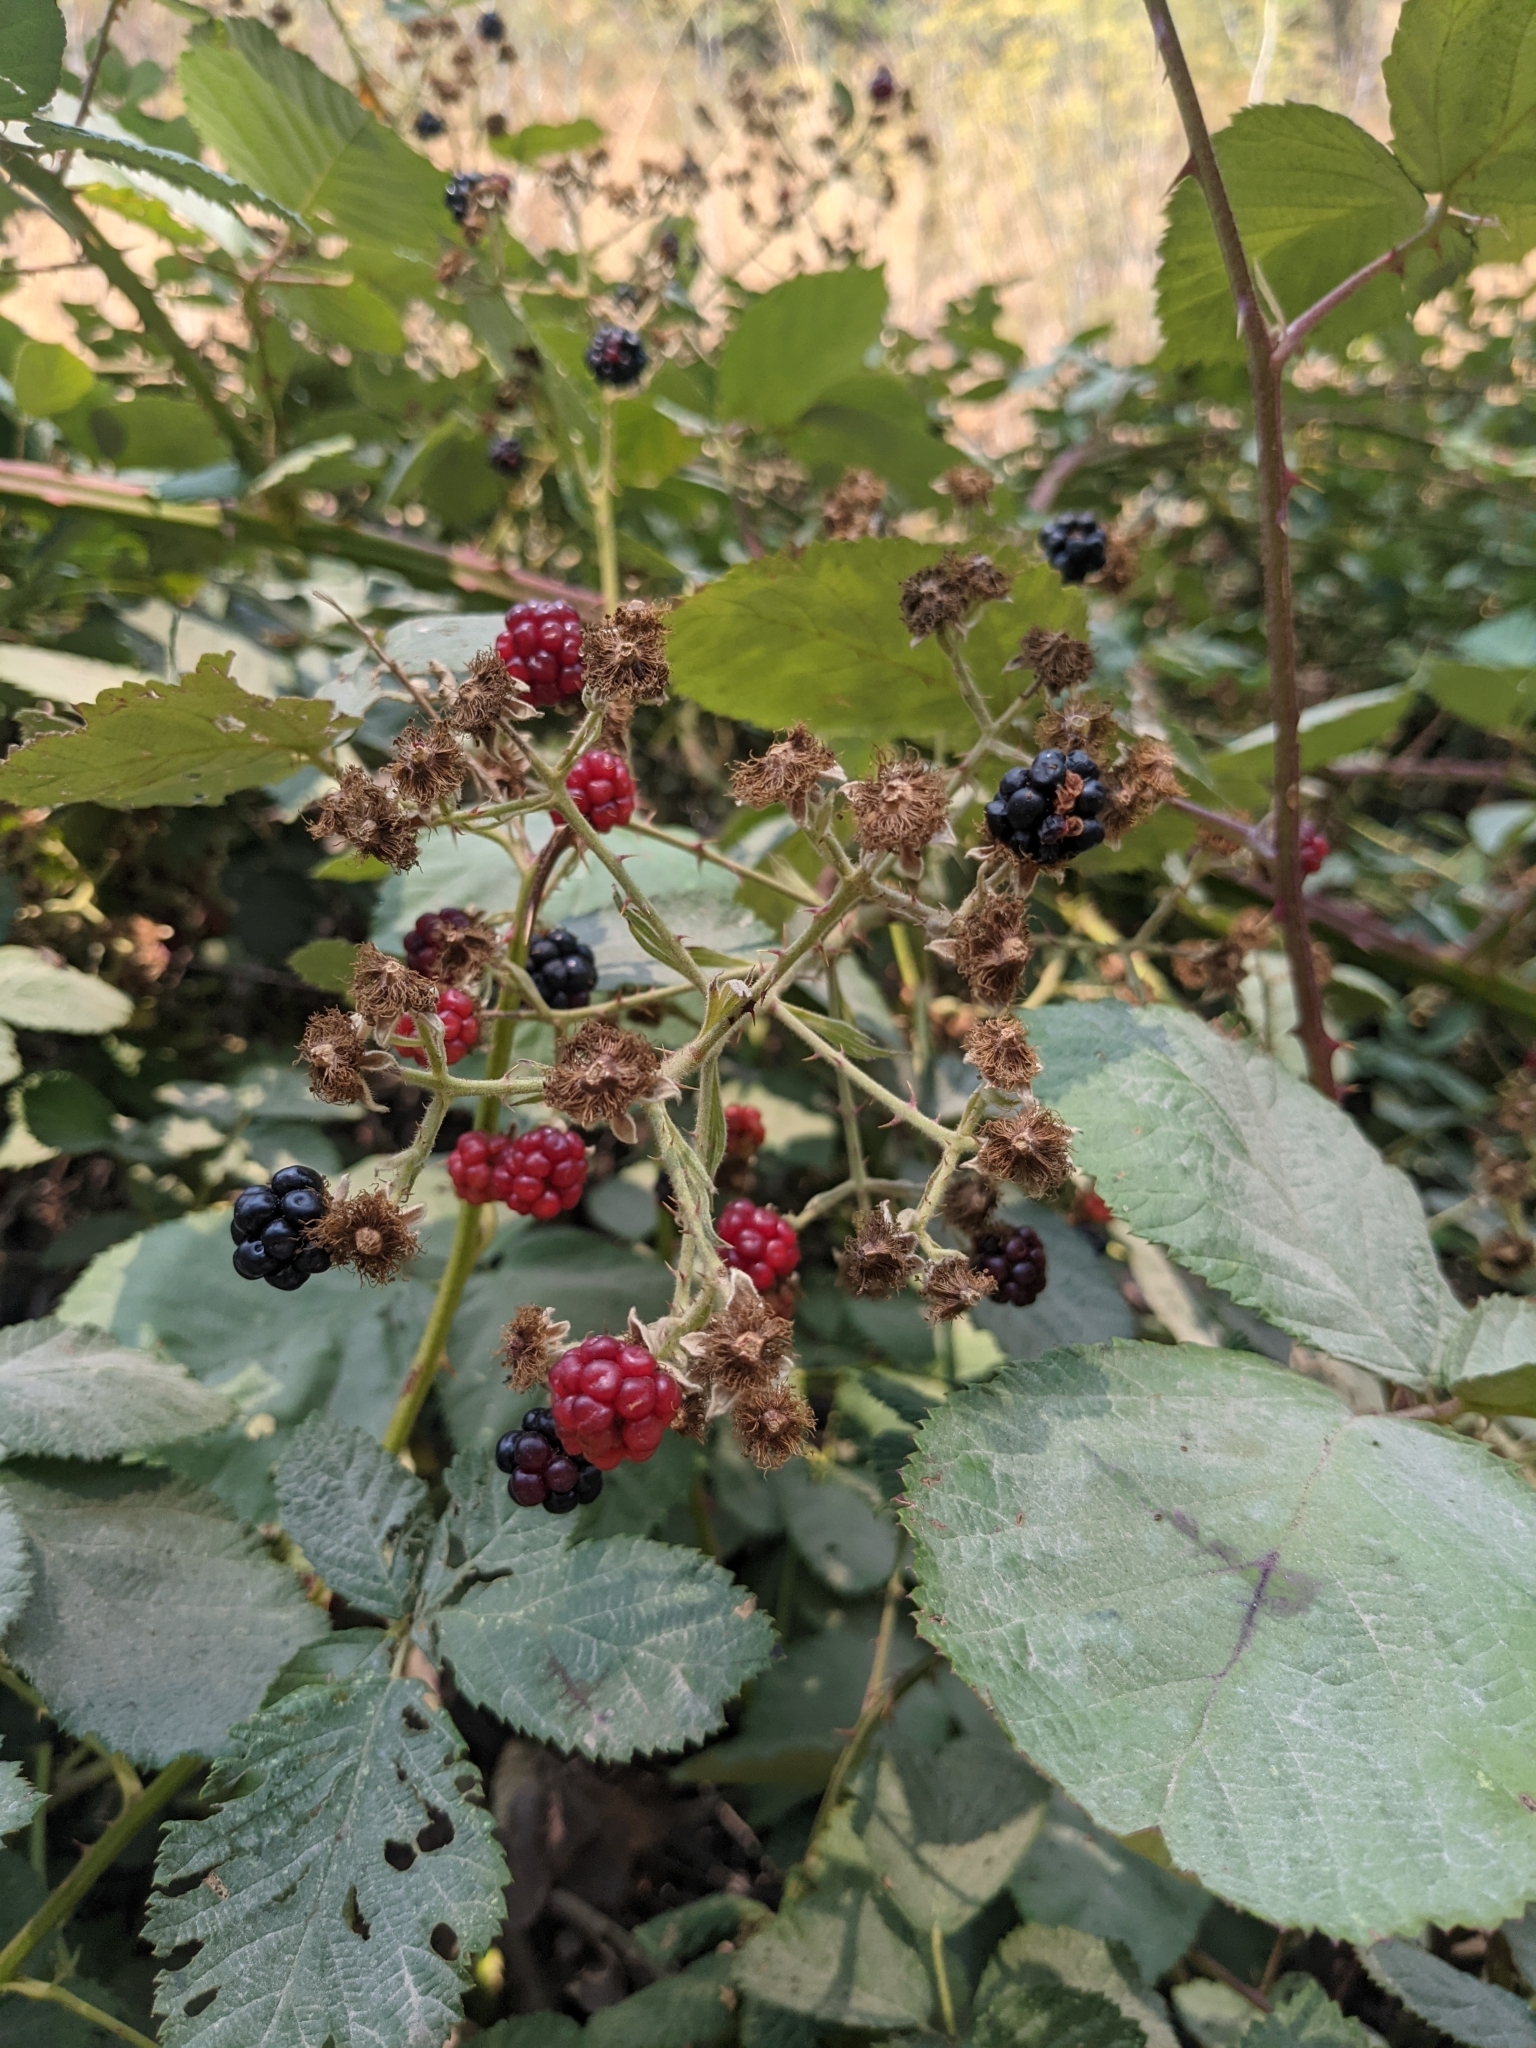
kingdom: Plantae
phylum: Tracheophyta
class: Magnoliopsida
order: Rosales
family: Rosaceae
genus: Rubus
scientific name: Rubus armeniacus
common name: Himalayan blackberry
